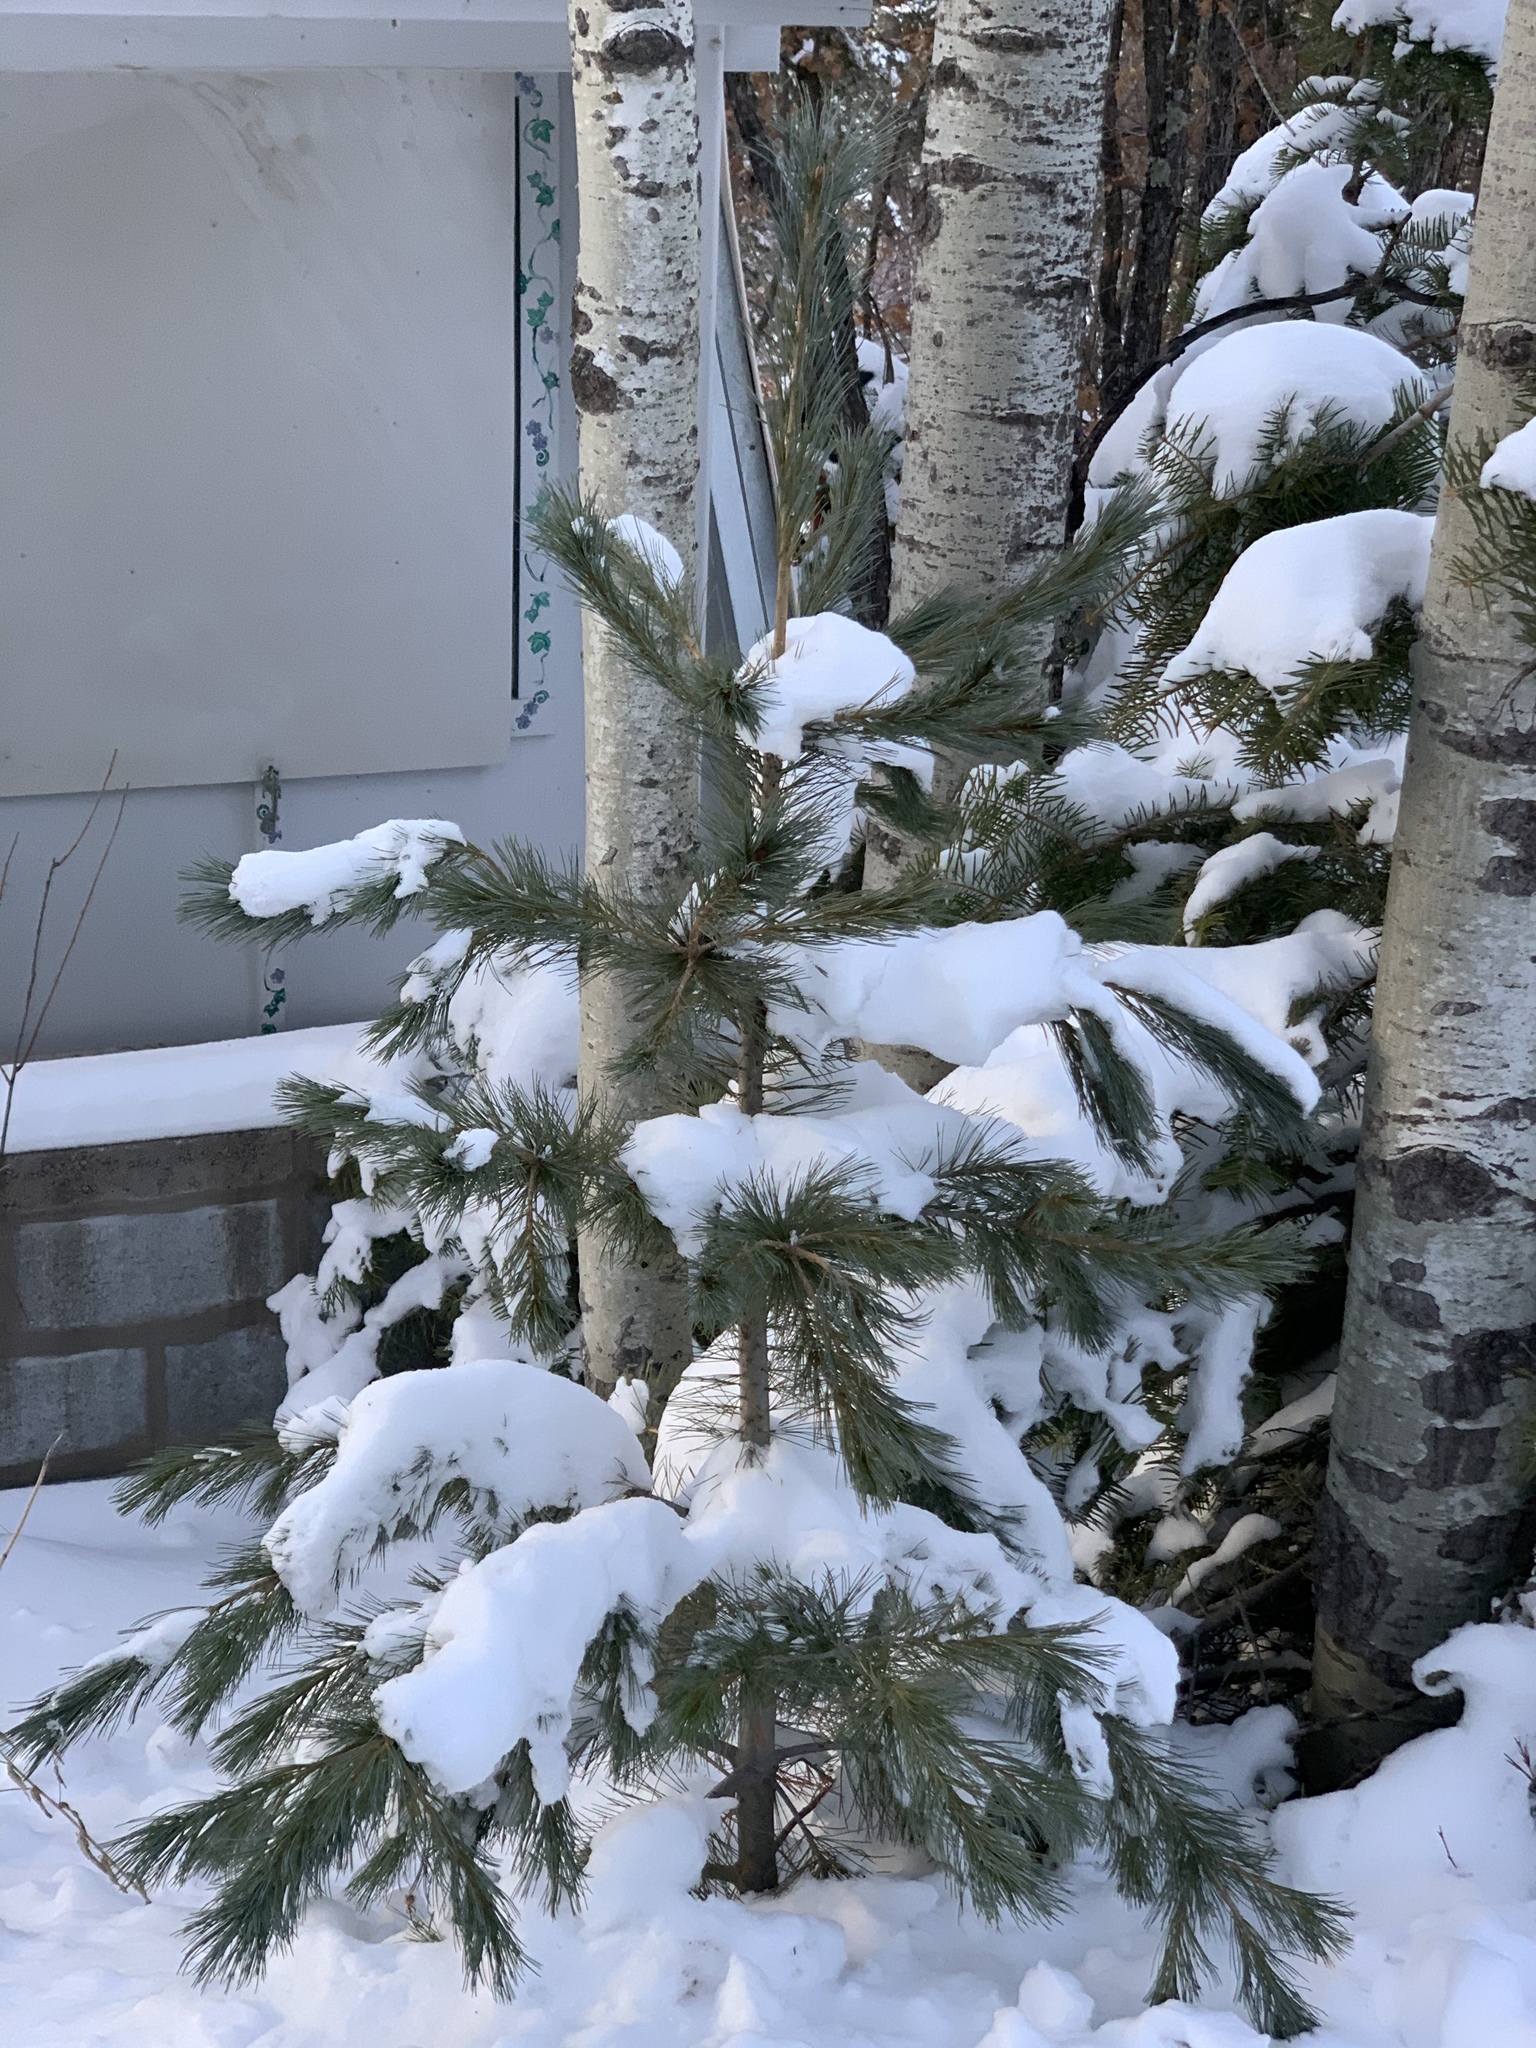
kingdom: Plantae
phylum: Tracheophyta
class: Pinopsida
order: Pinales
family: Pinaceae
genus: Pinus
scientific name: Pinus strobiformis
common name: Southwestern white pine
